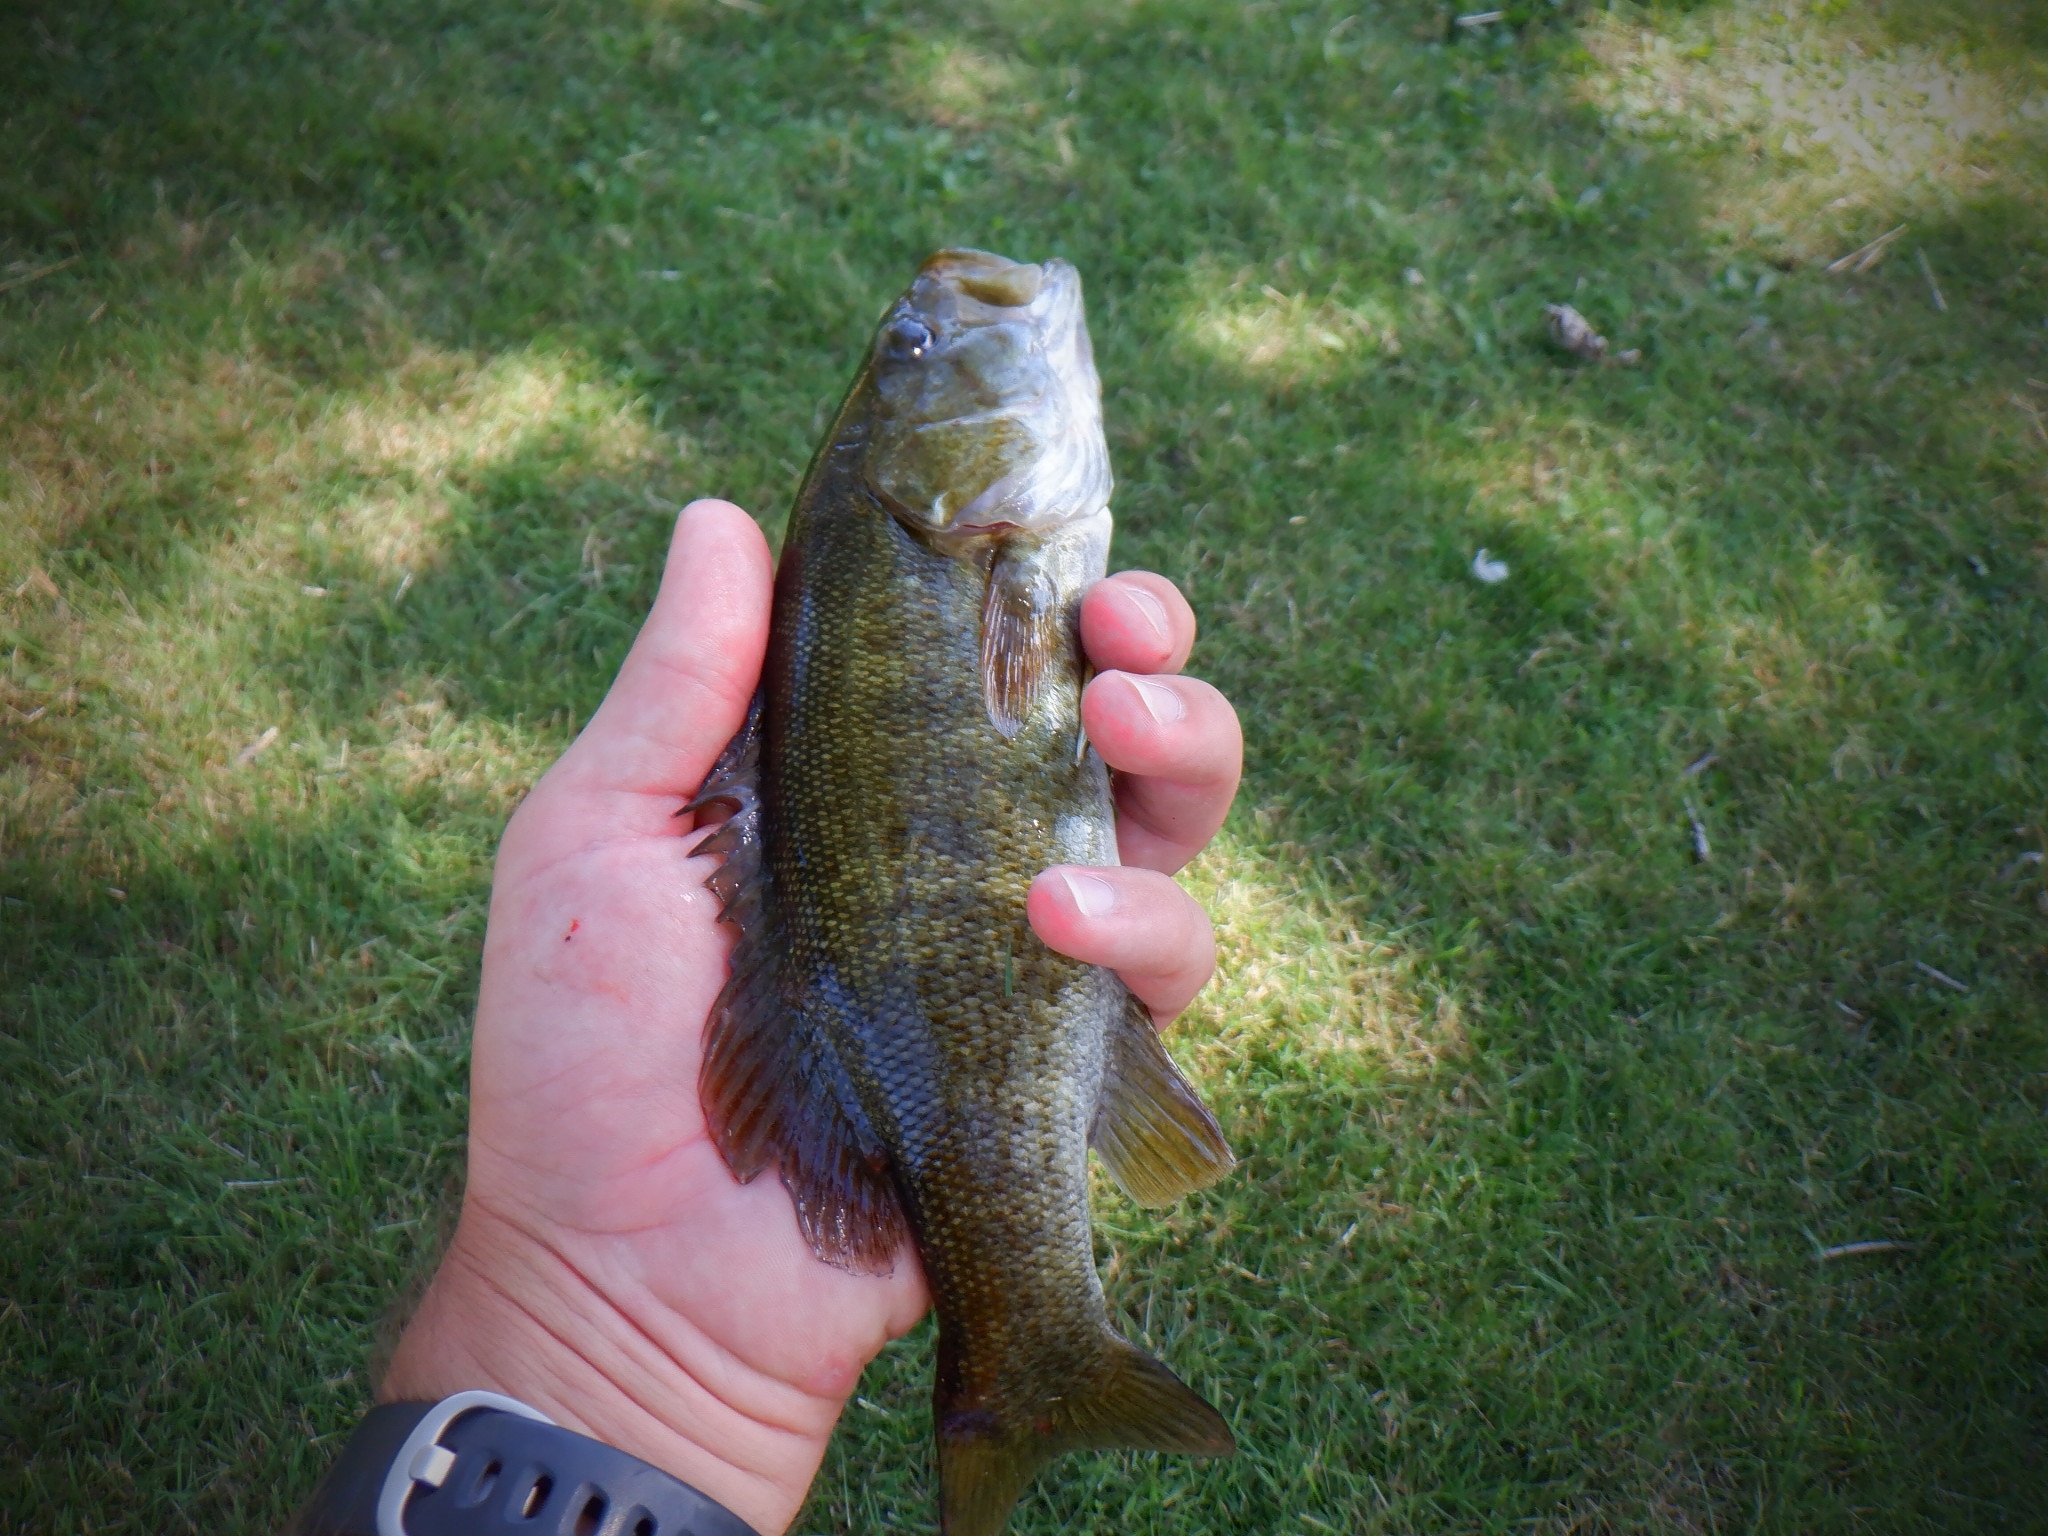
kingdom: Animalia
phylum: Chordata
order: Perciformes
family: Centrarchidae
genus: Micropterus
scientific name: Micropterus dolomieu
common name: Smallmouth bass
